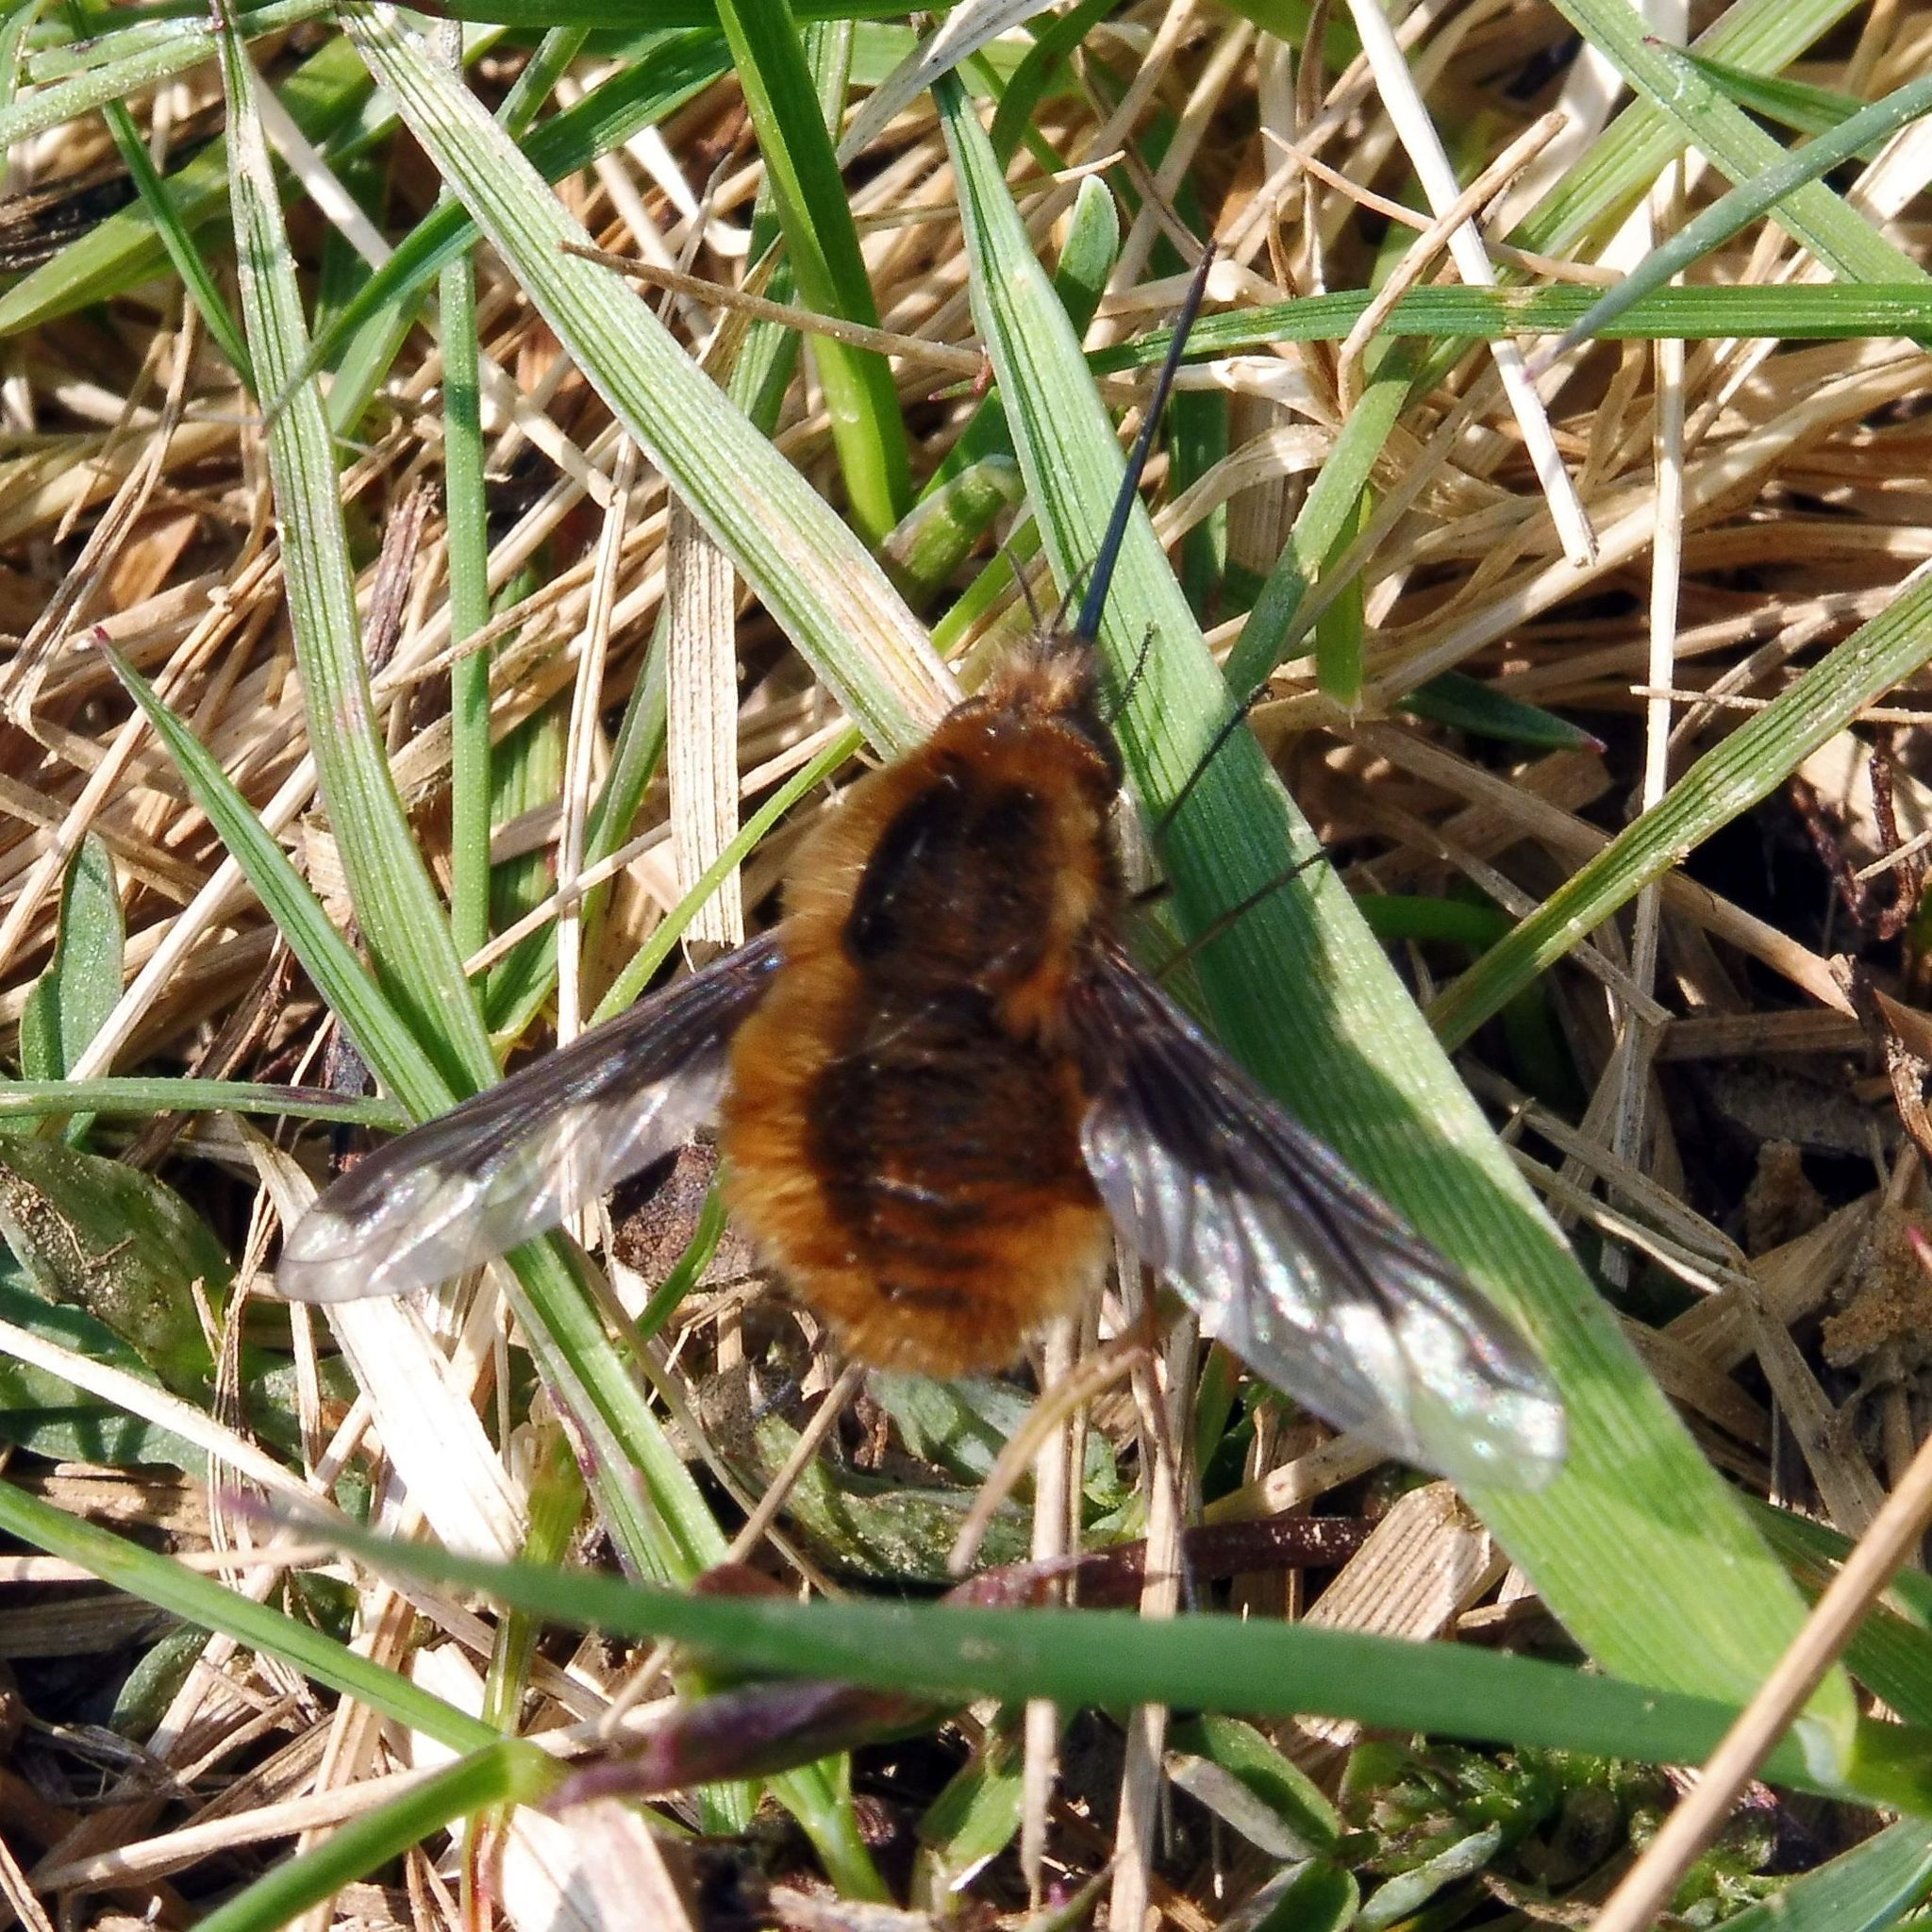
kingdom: Animalia
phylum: Arthropoda
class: Insecta
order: Diptera
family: Bombyliidae
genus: Bombylius
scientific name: Bombylius major
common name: Bee fly
